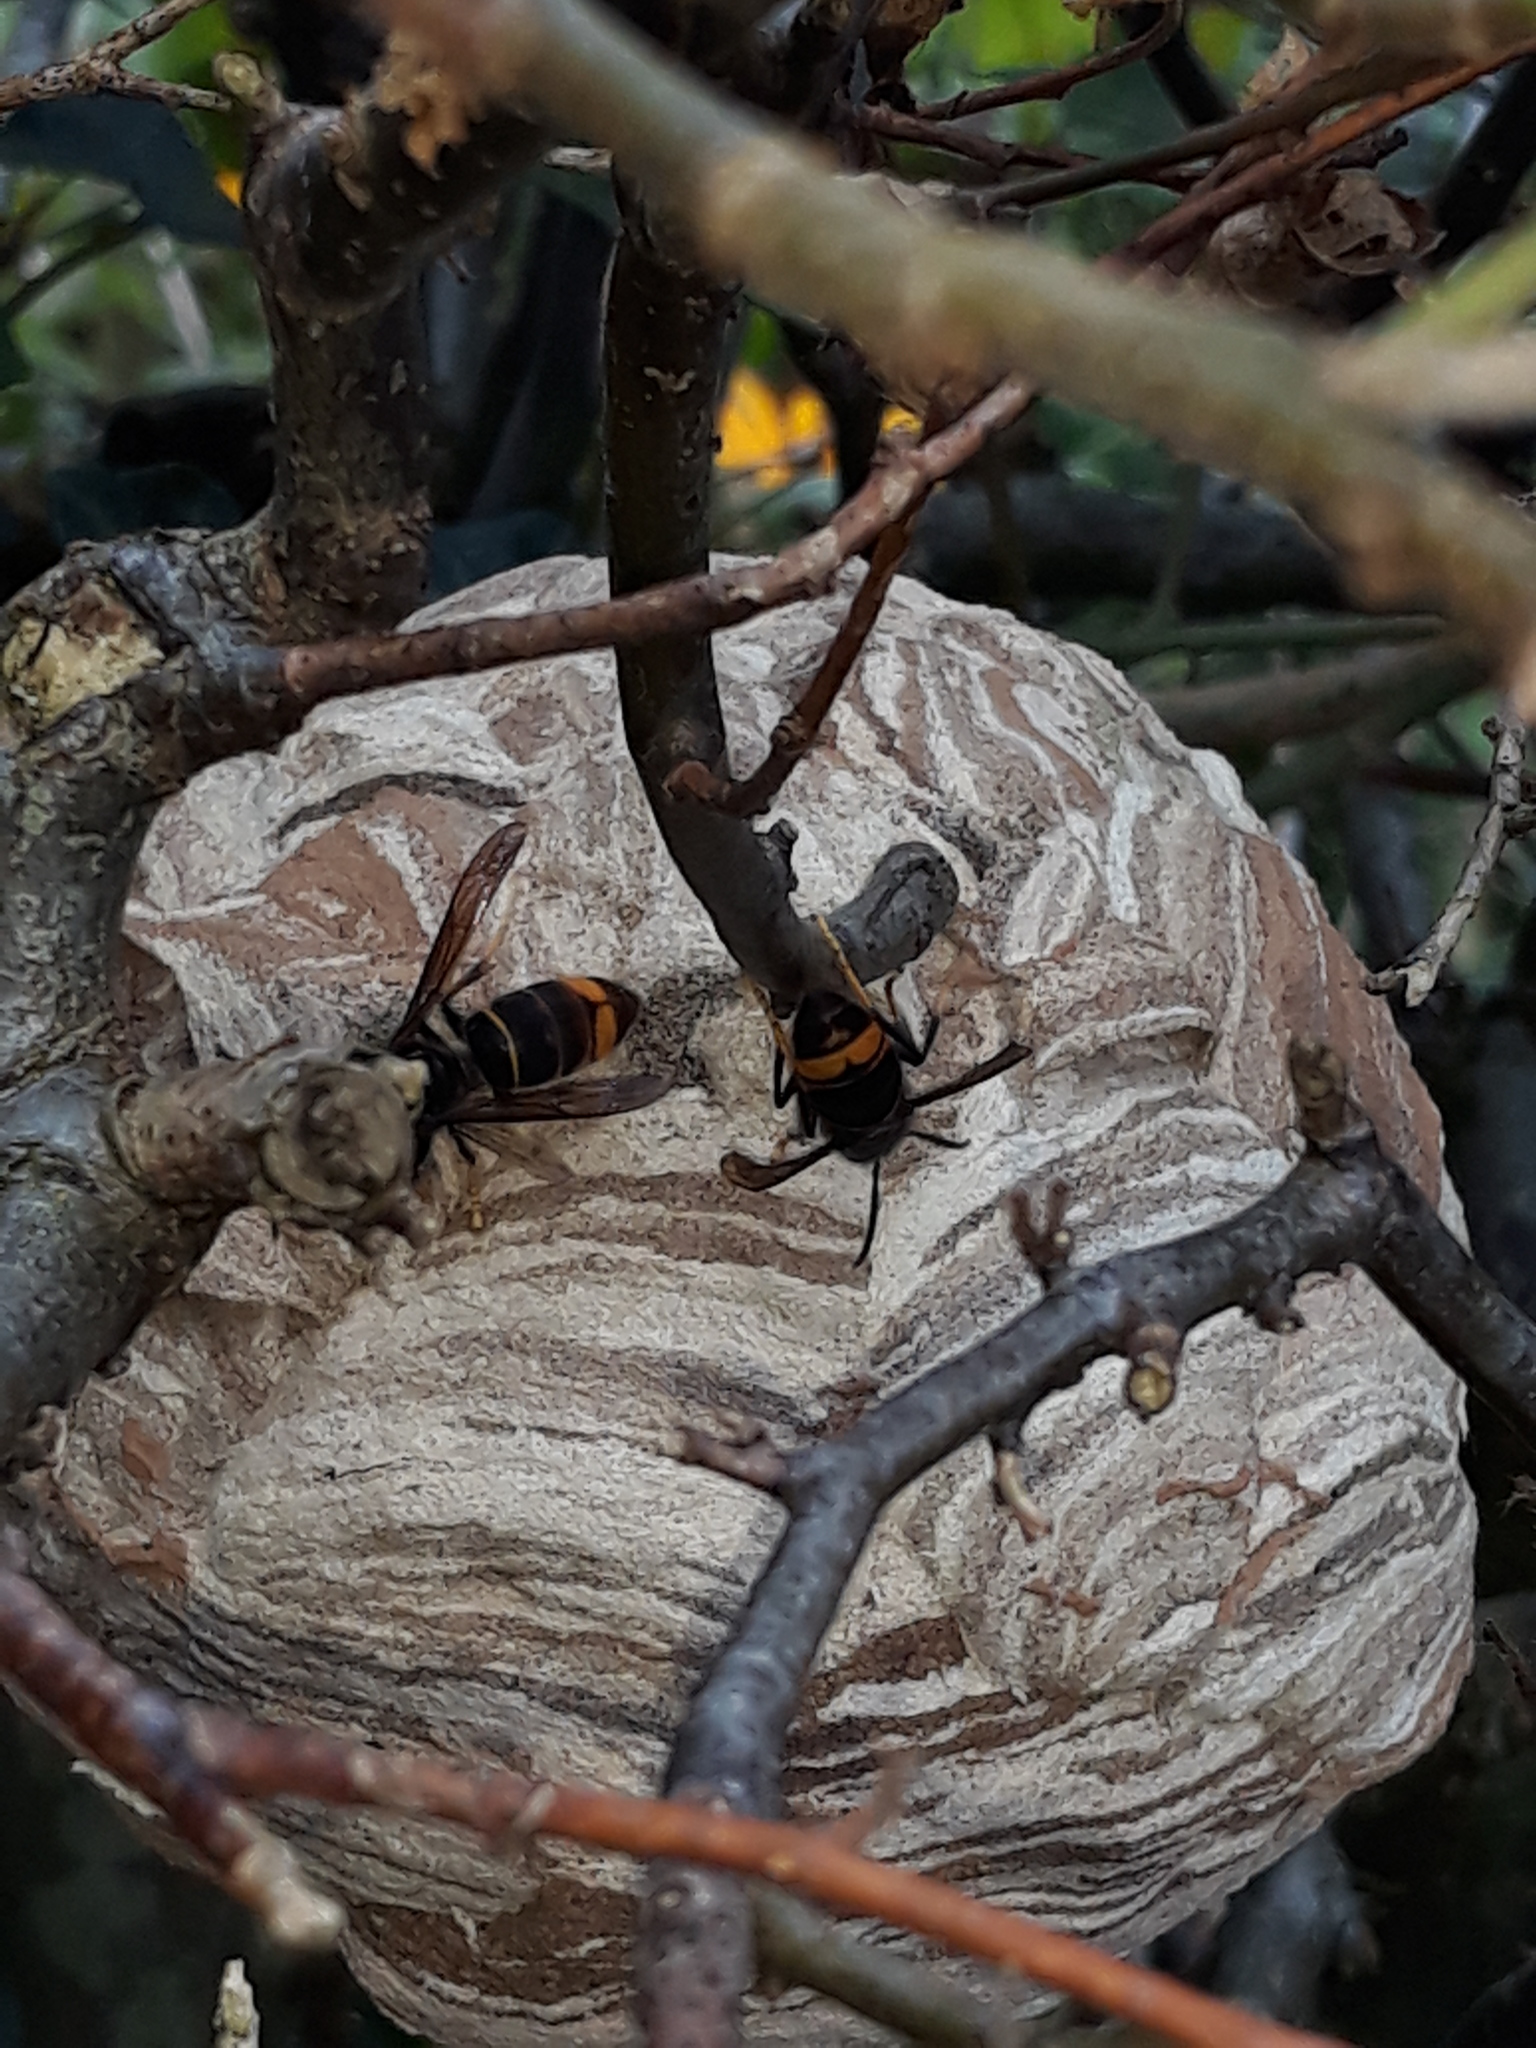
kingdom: Animalia
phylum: Arthropoda
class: Insecta
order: Hymenoptera
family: Vespidae
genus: Vespa
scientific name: Vespa velutina
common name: Asian hornet
